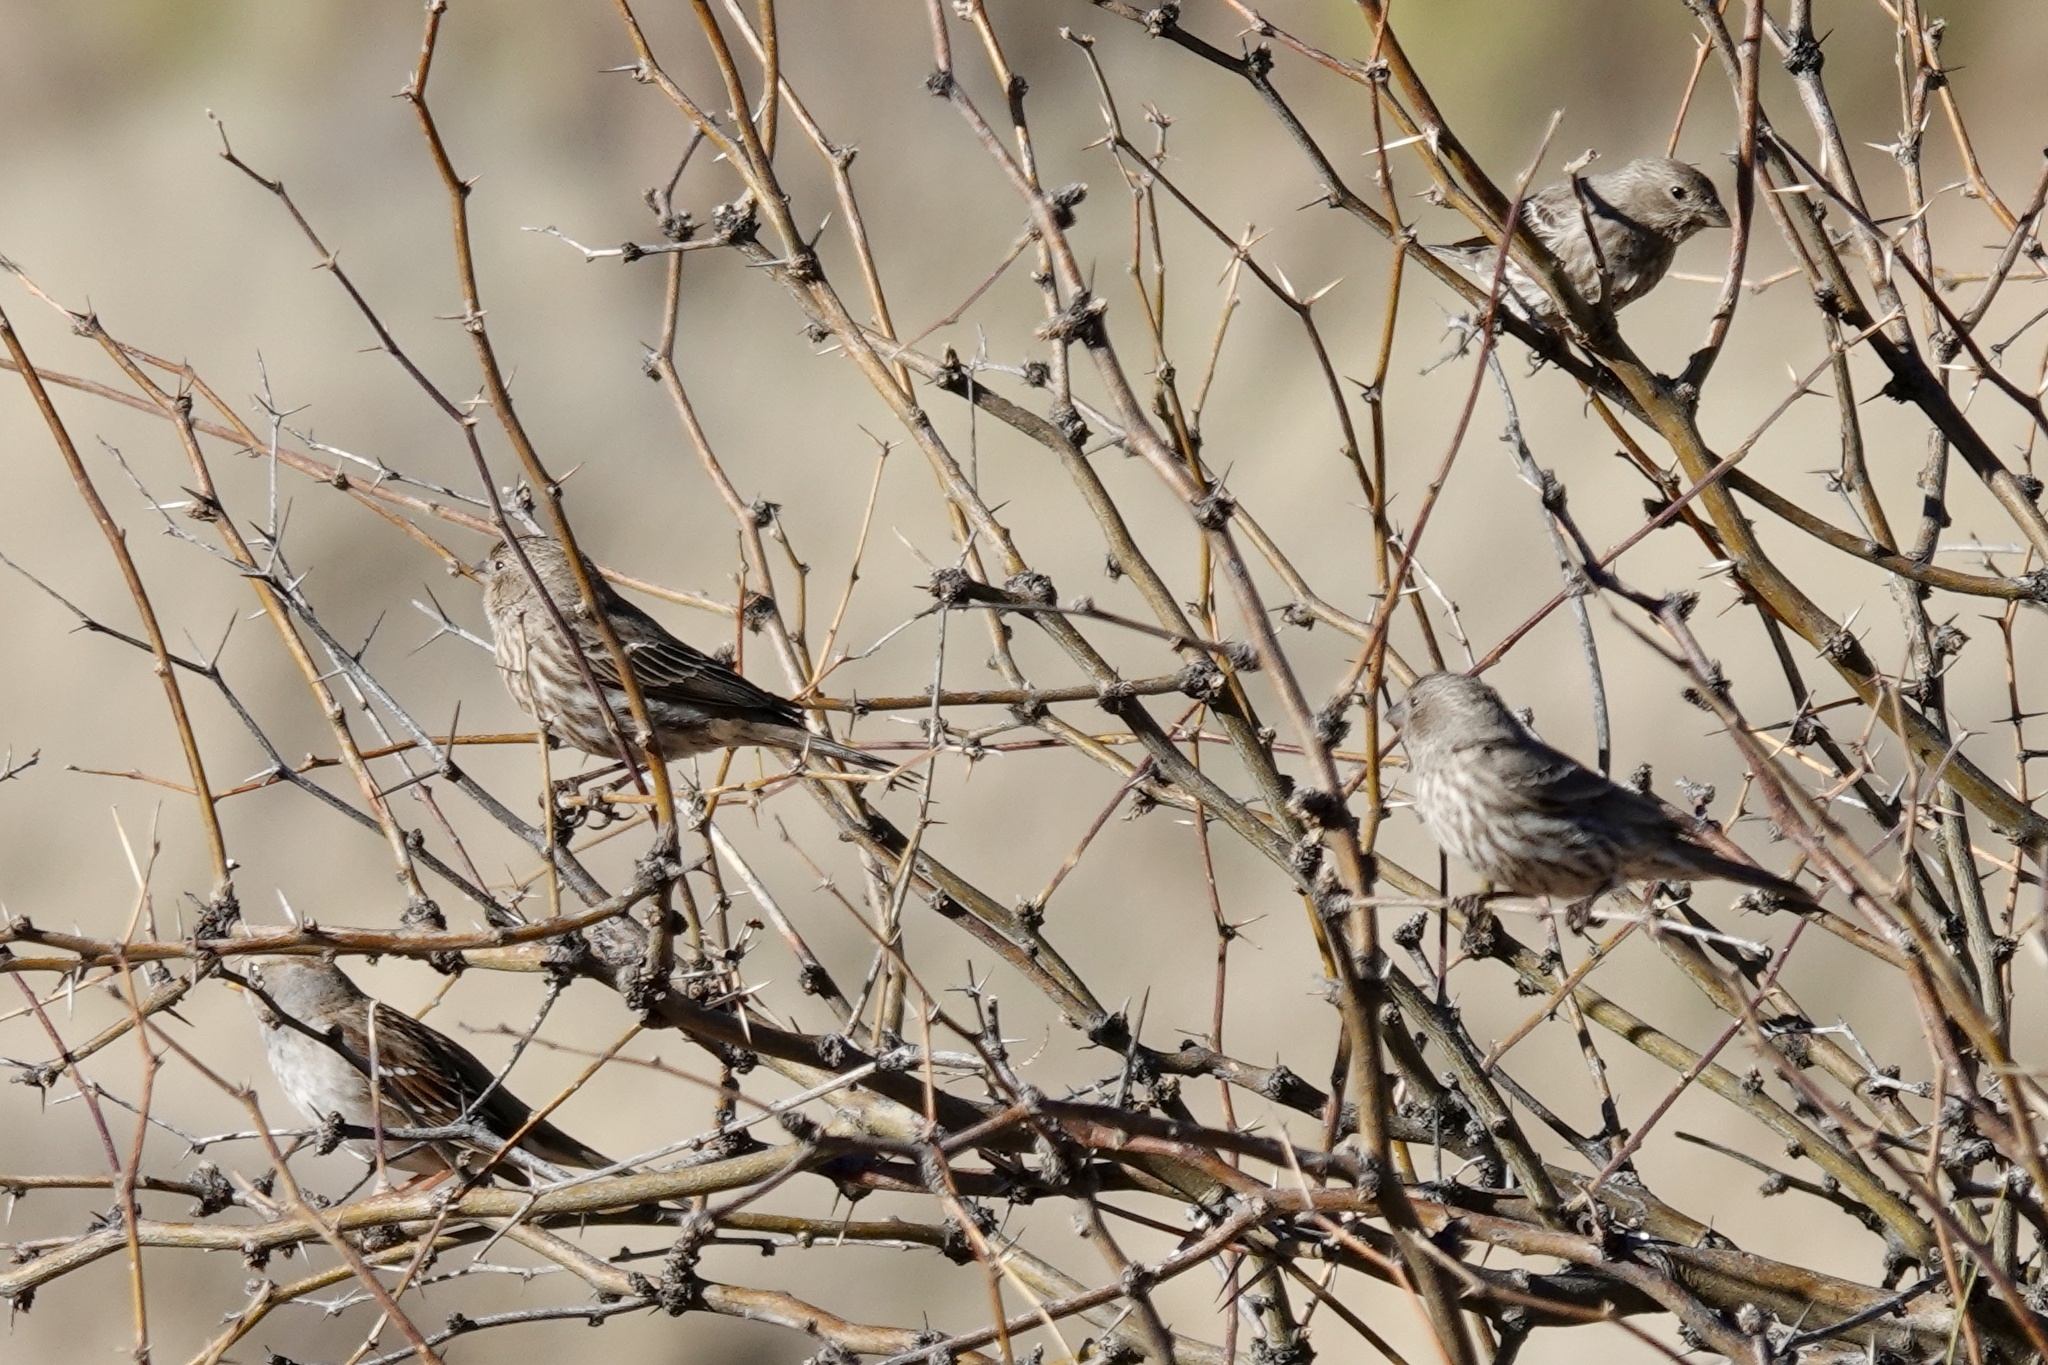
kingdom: Animalia
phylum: Chordata
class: Aves
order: Passeriformes
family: Fringillidae
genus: Haemorhous
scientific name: Haemorhous mexicanus
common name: House finch
